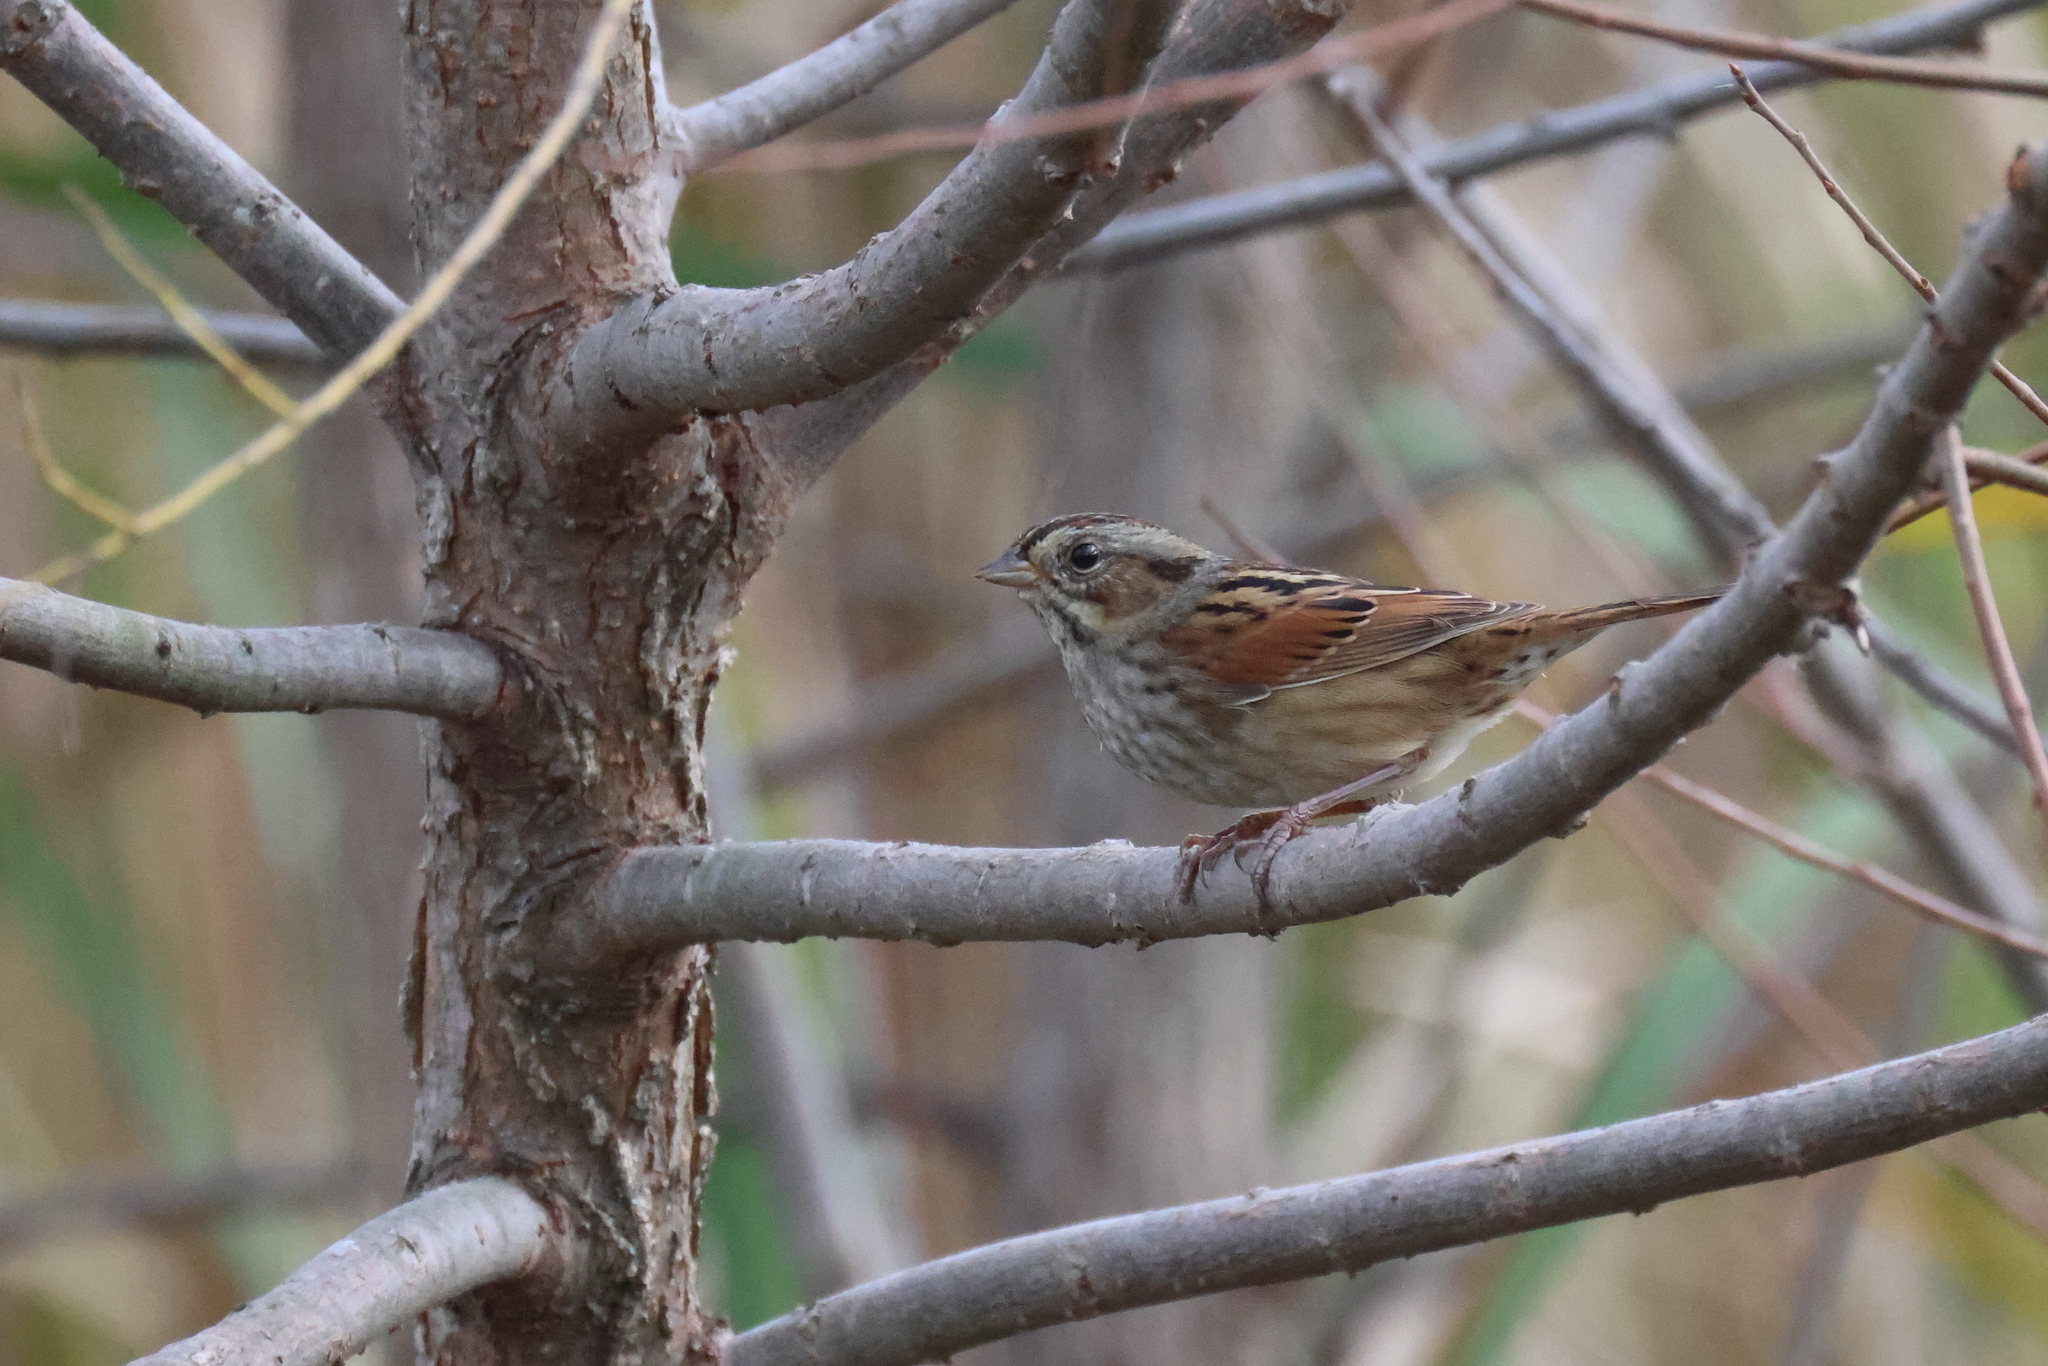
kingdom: Animalia
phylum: Chordata
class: Aves
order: Passeriformes
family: Passerellidae
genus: Melospiza
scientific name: Melospiza georgiana
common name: Swamp sparrow
